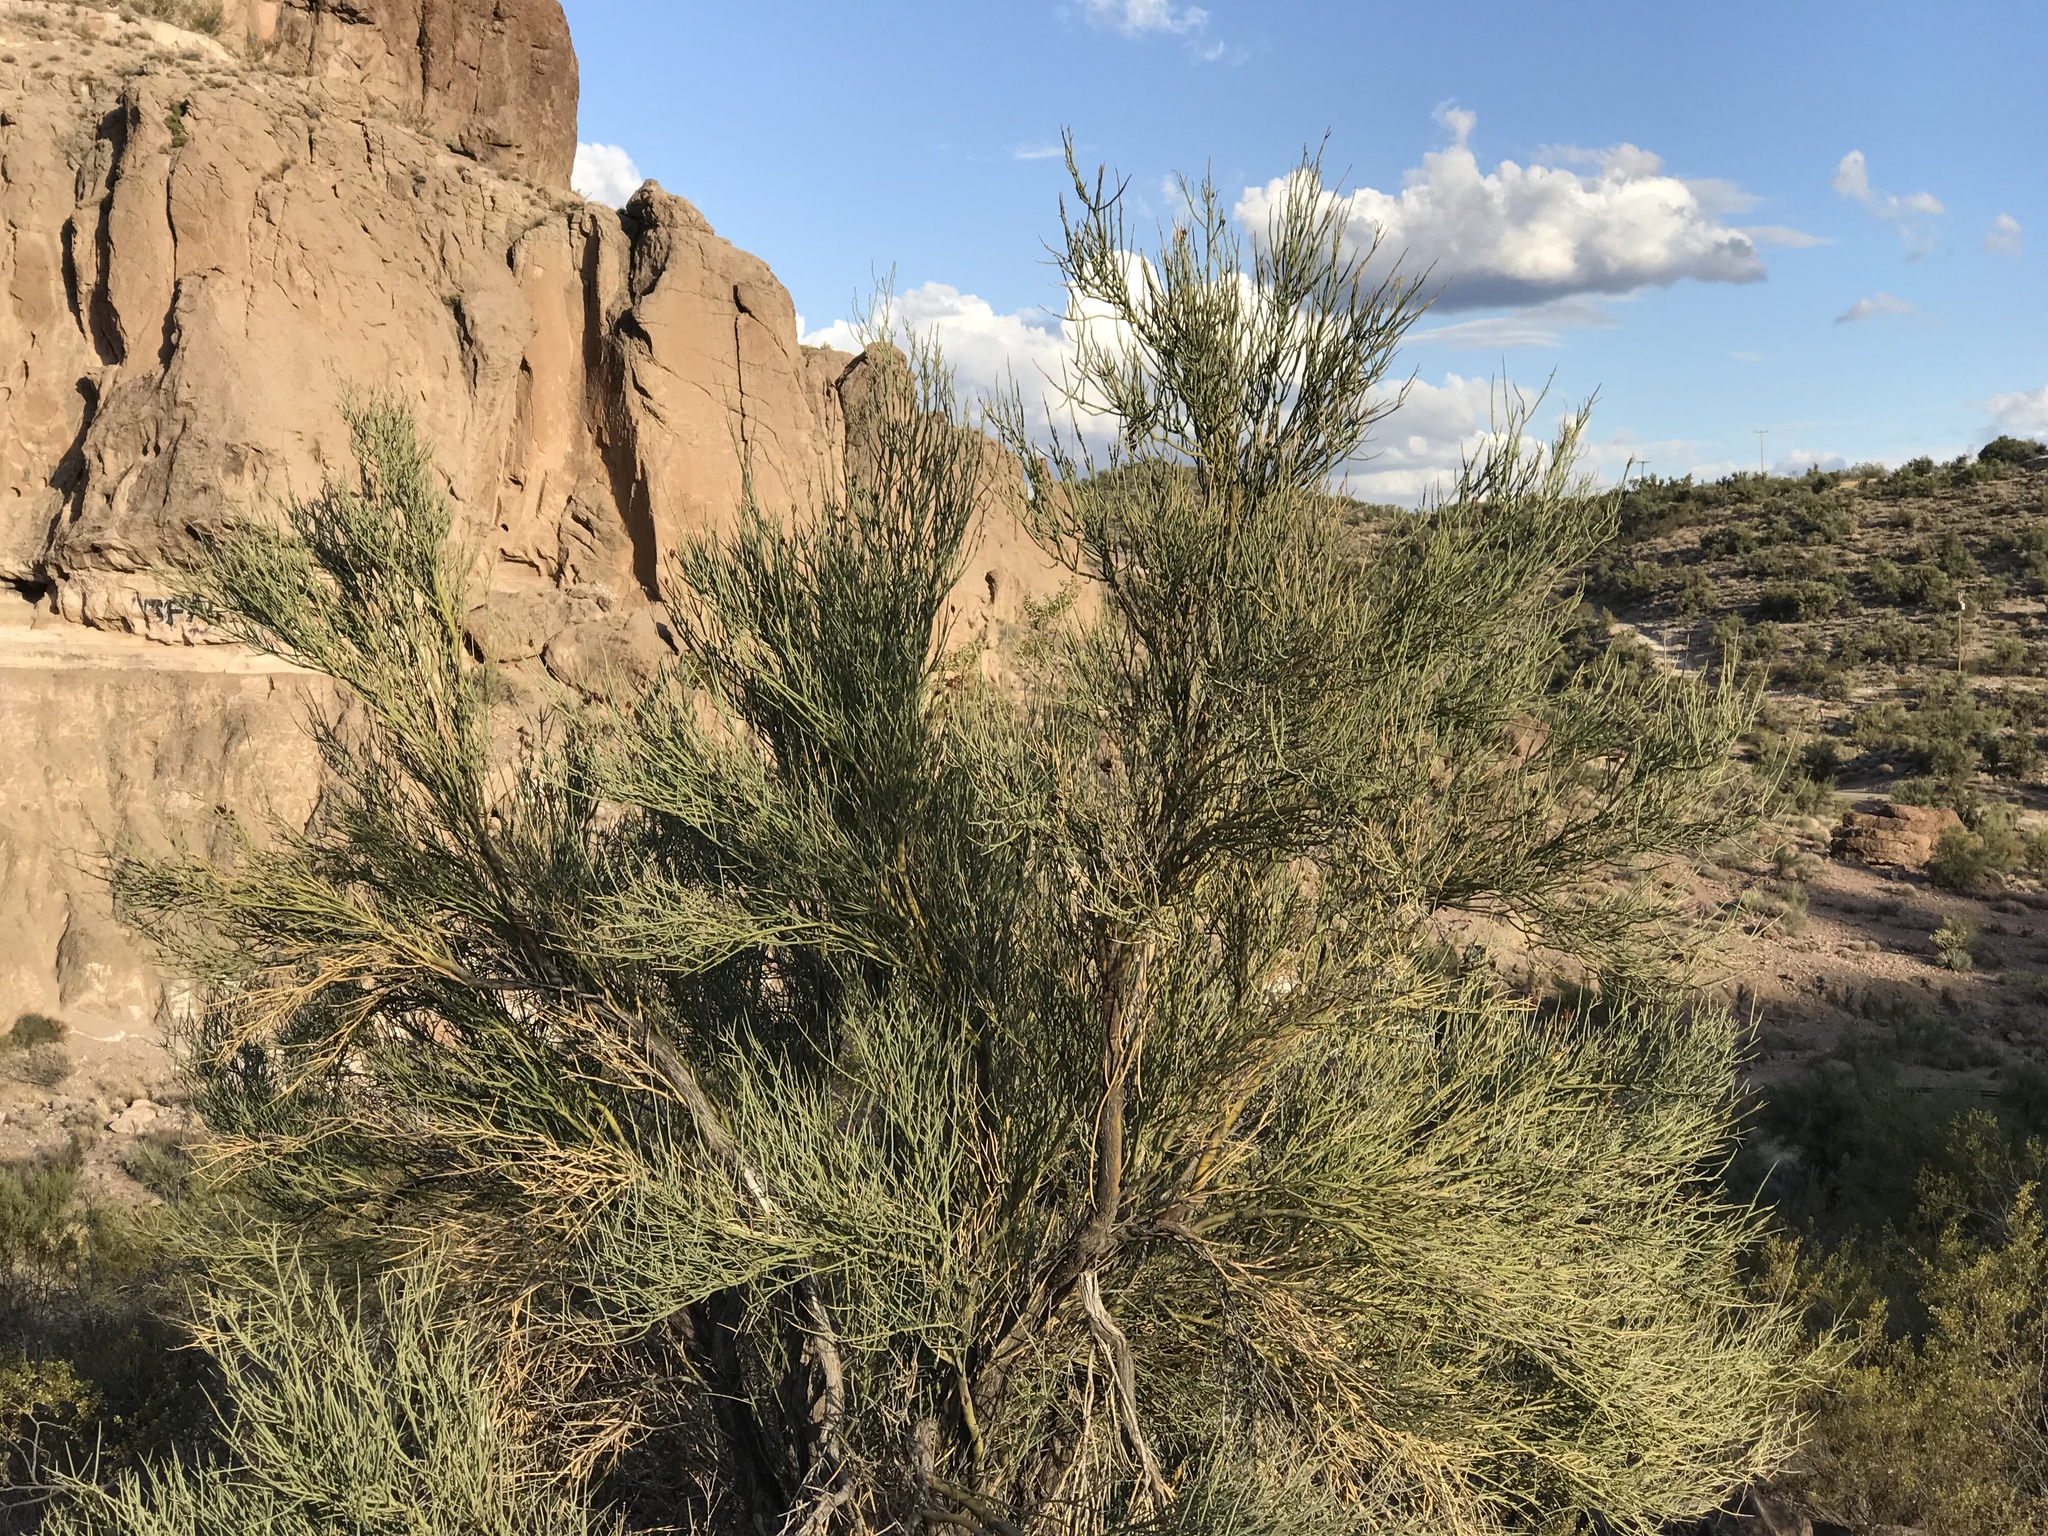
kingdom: Plantae
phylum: Tracheophyta
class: Magnoliopsida
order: Celastrales
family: Celastraceae
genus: Canotia
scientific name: Canotia holacantha
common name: Crucifixion thorns
